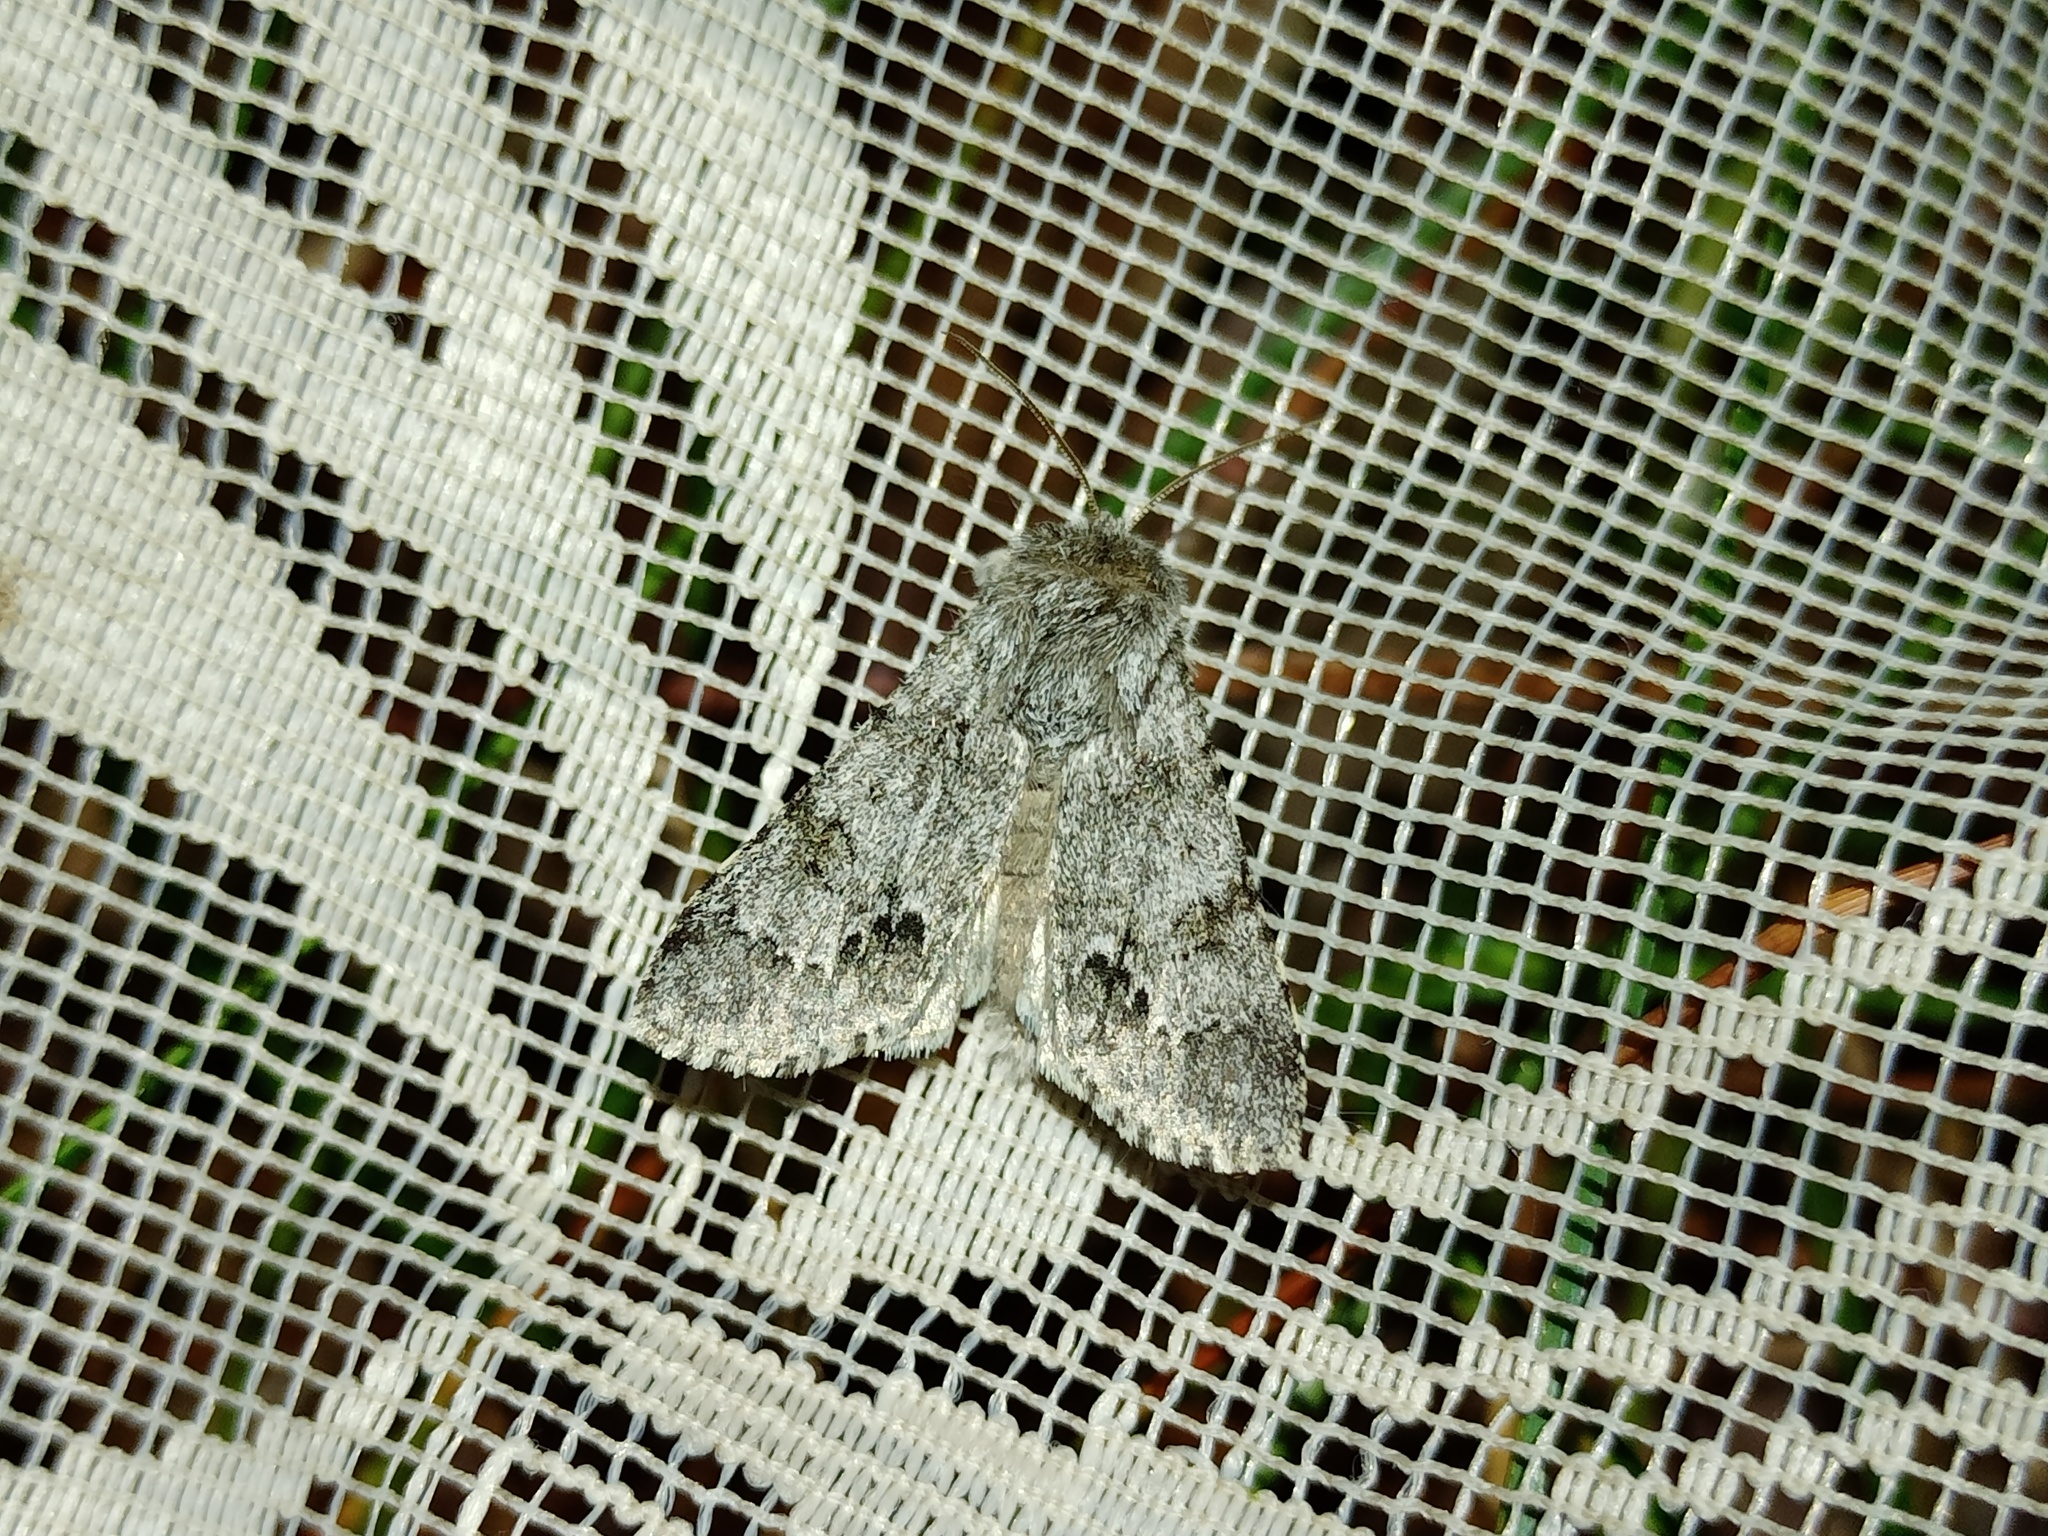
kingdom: Animalia
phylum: Arthropoda
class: Insecta
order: Lepidoptera
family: Noctuidae
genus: Acronicta
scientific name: Acronicta menyanthidis
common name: Light knot grass
